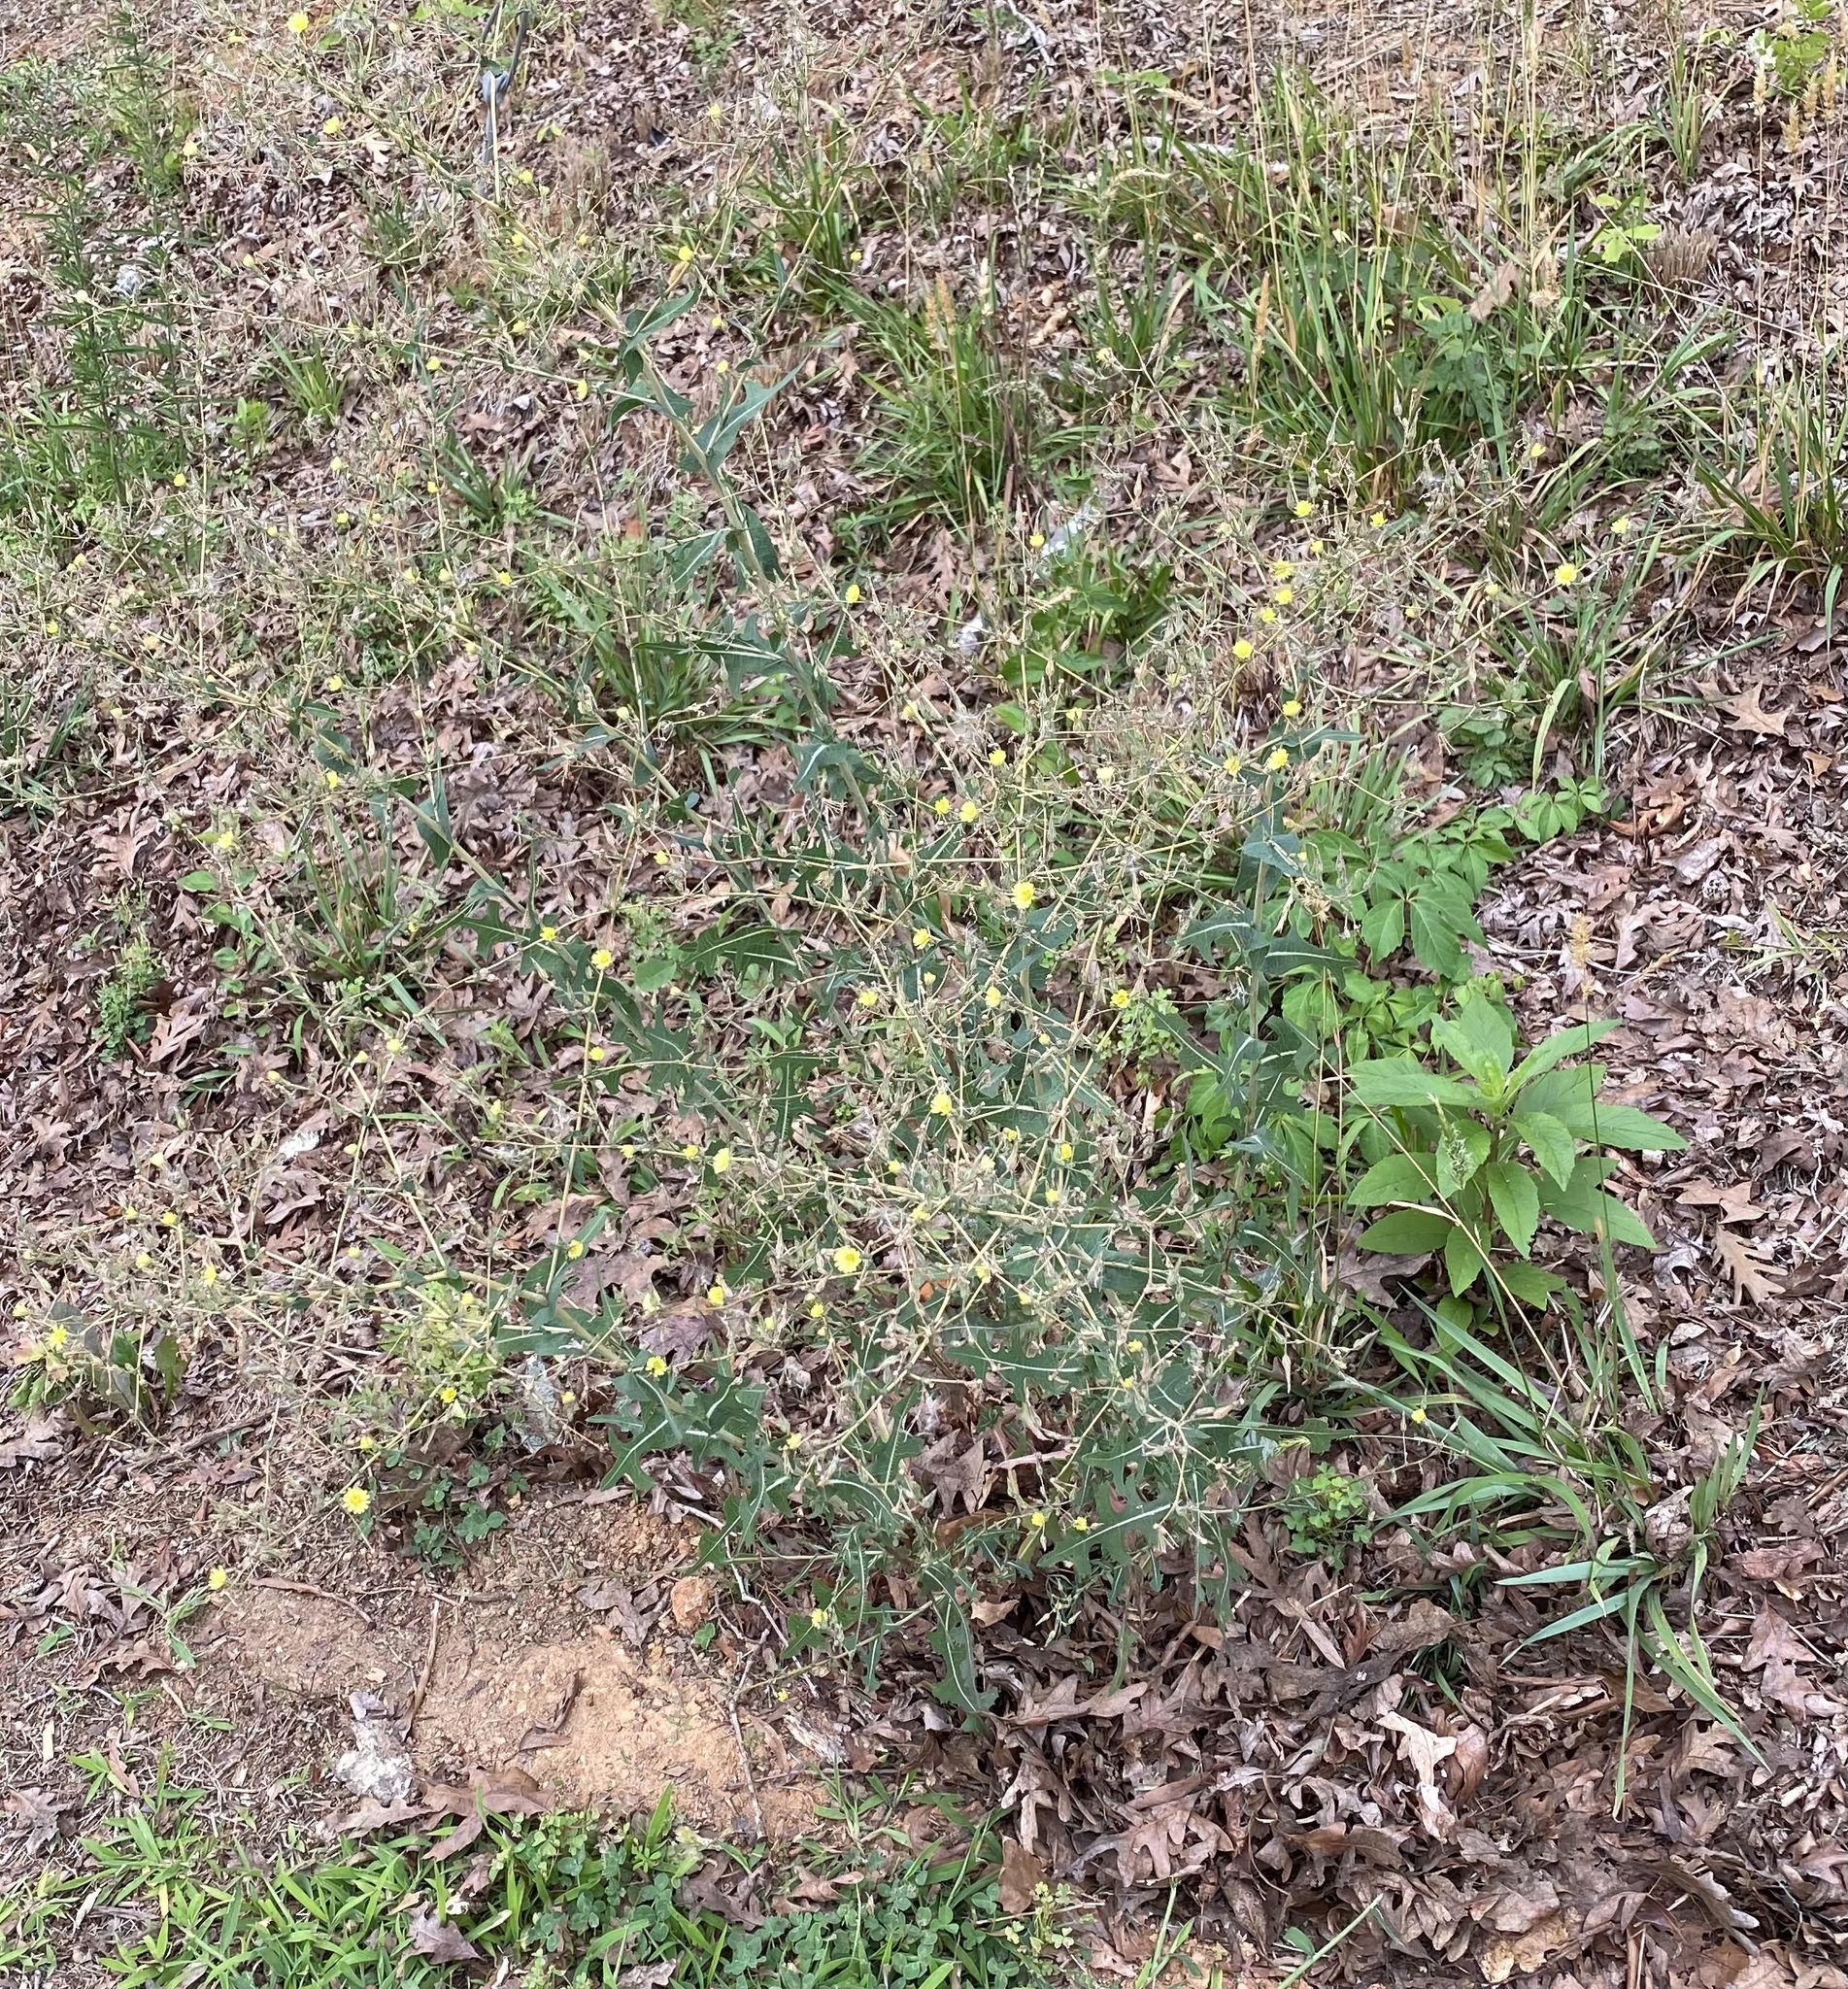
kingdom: Plantae
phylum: Tracheophyta
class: Magnoliopsida
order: Asterales
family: Asteraceae
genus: Lactuca
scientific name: Lactuca serriola
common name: Prickly lettuce
